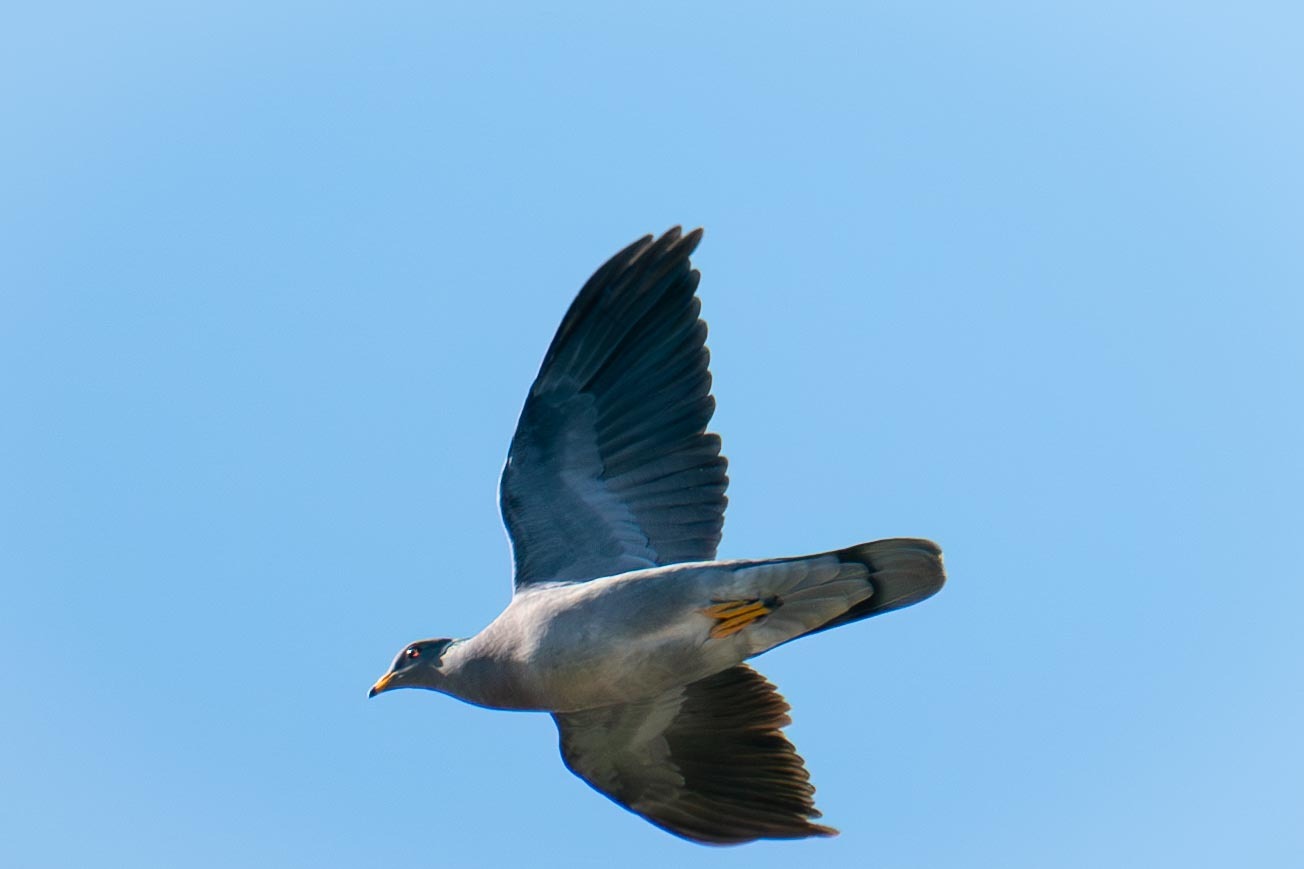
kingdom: Animalia
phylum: Chordata
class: Aves
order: Columbiformes
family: Columbidae
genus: Patagioenas
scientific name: Patagioenas fasciata
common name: Band-tailed pigeon
